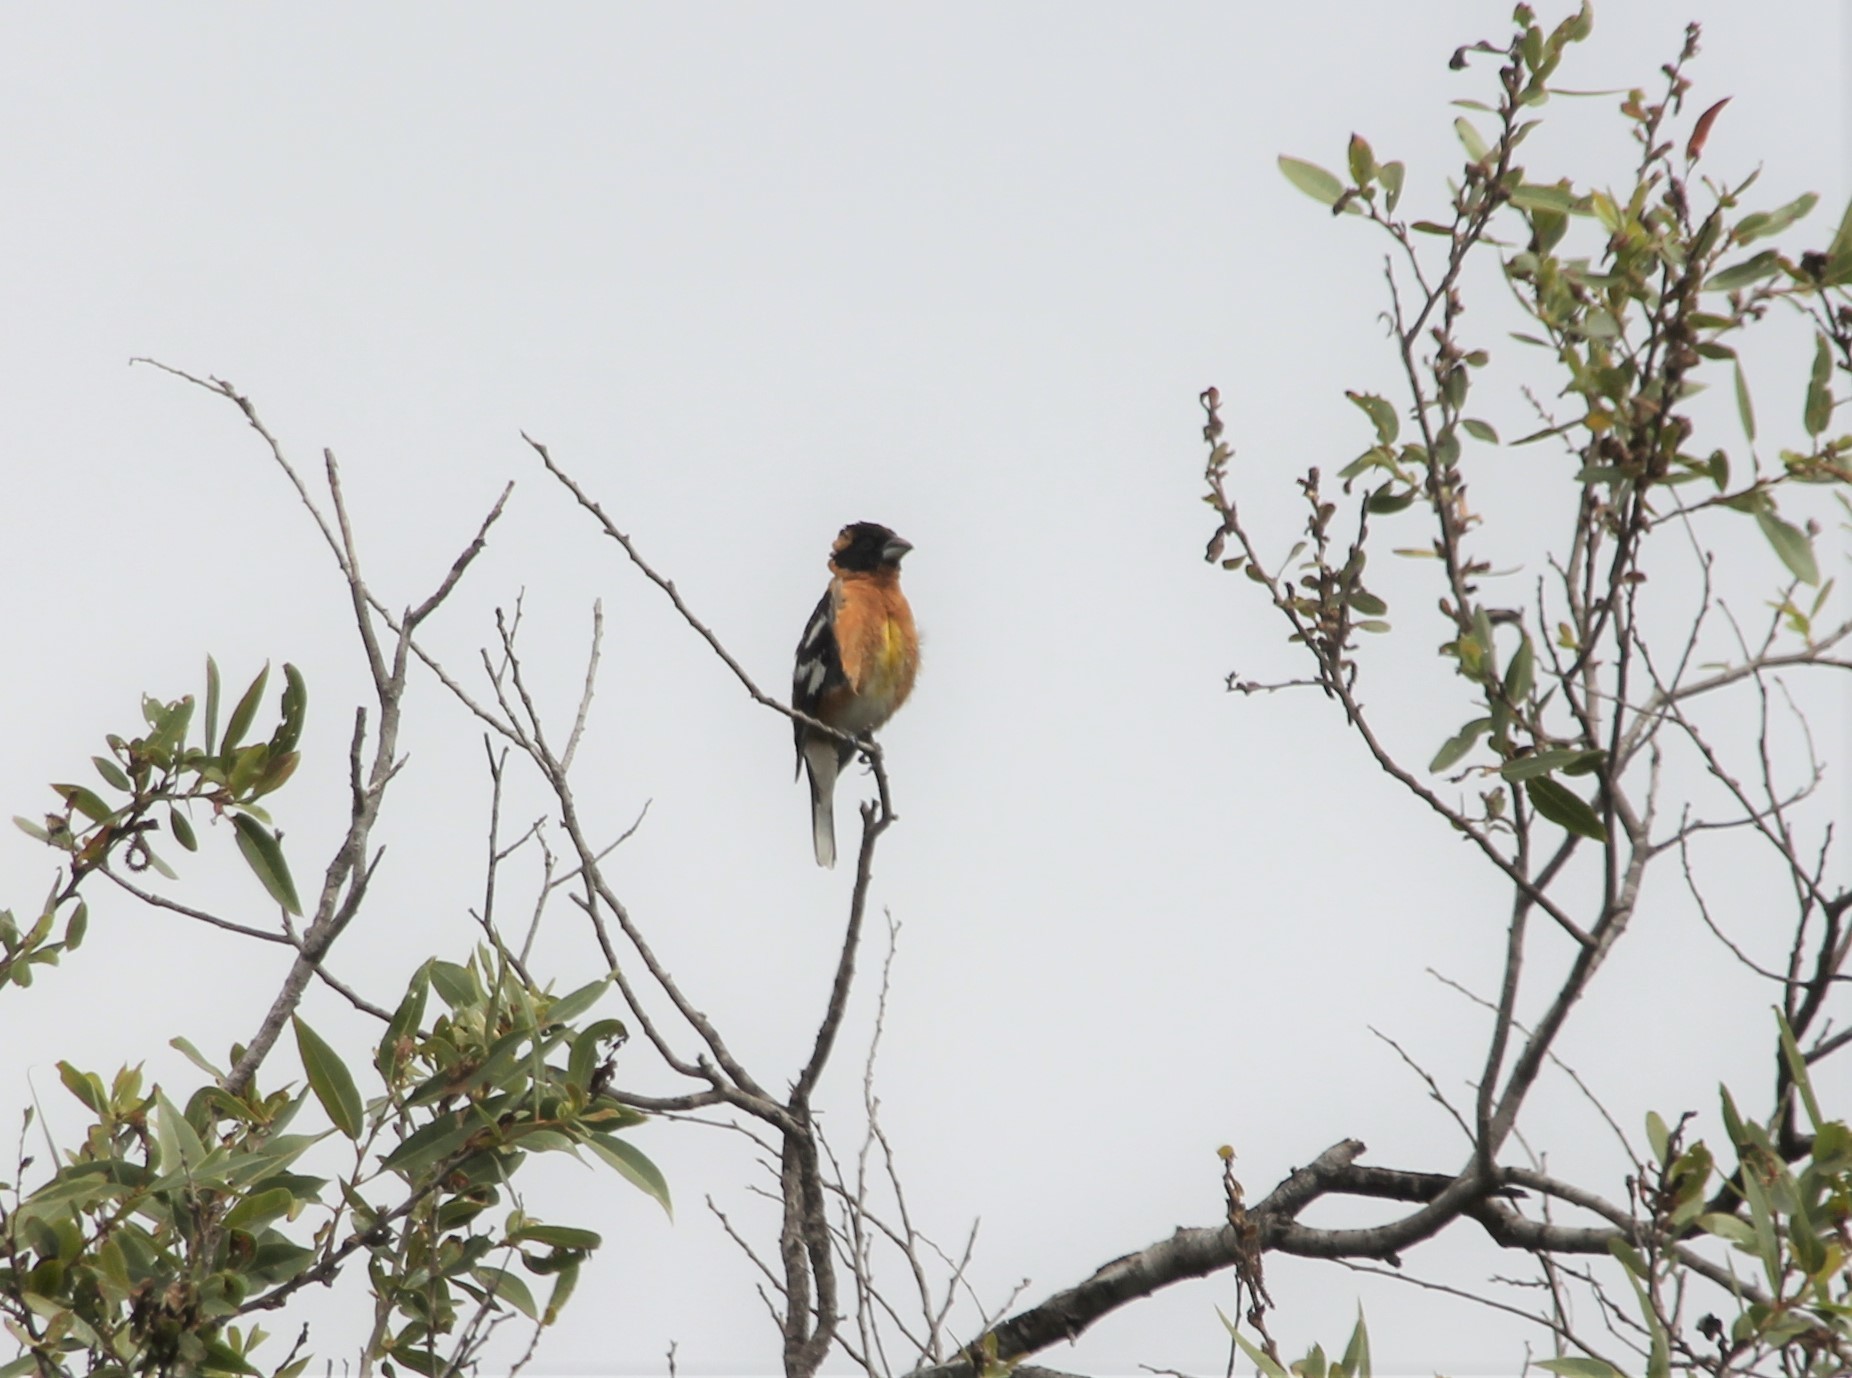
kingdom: Animalia
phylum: Chordata
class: Aves
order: Passeriformes
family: Cardinalidae
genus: Pheucticus
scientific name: Pheucticus melanocephalus
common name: Black-headed grosbeak
